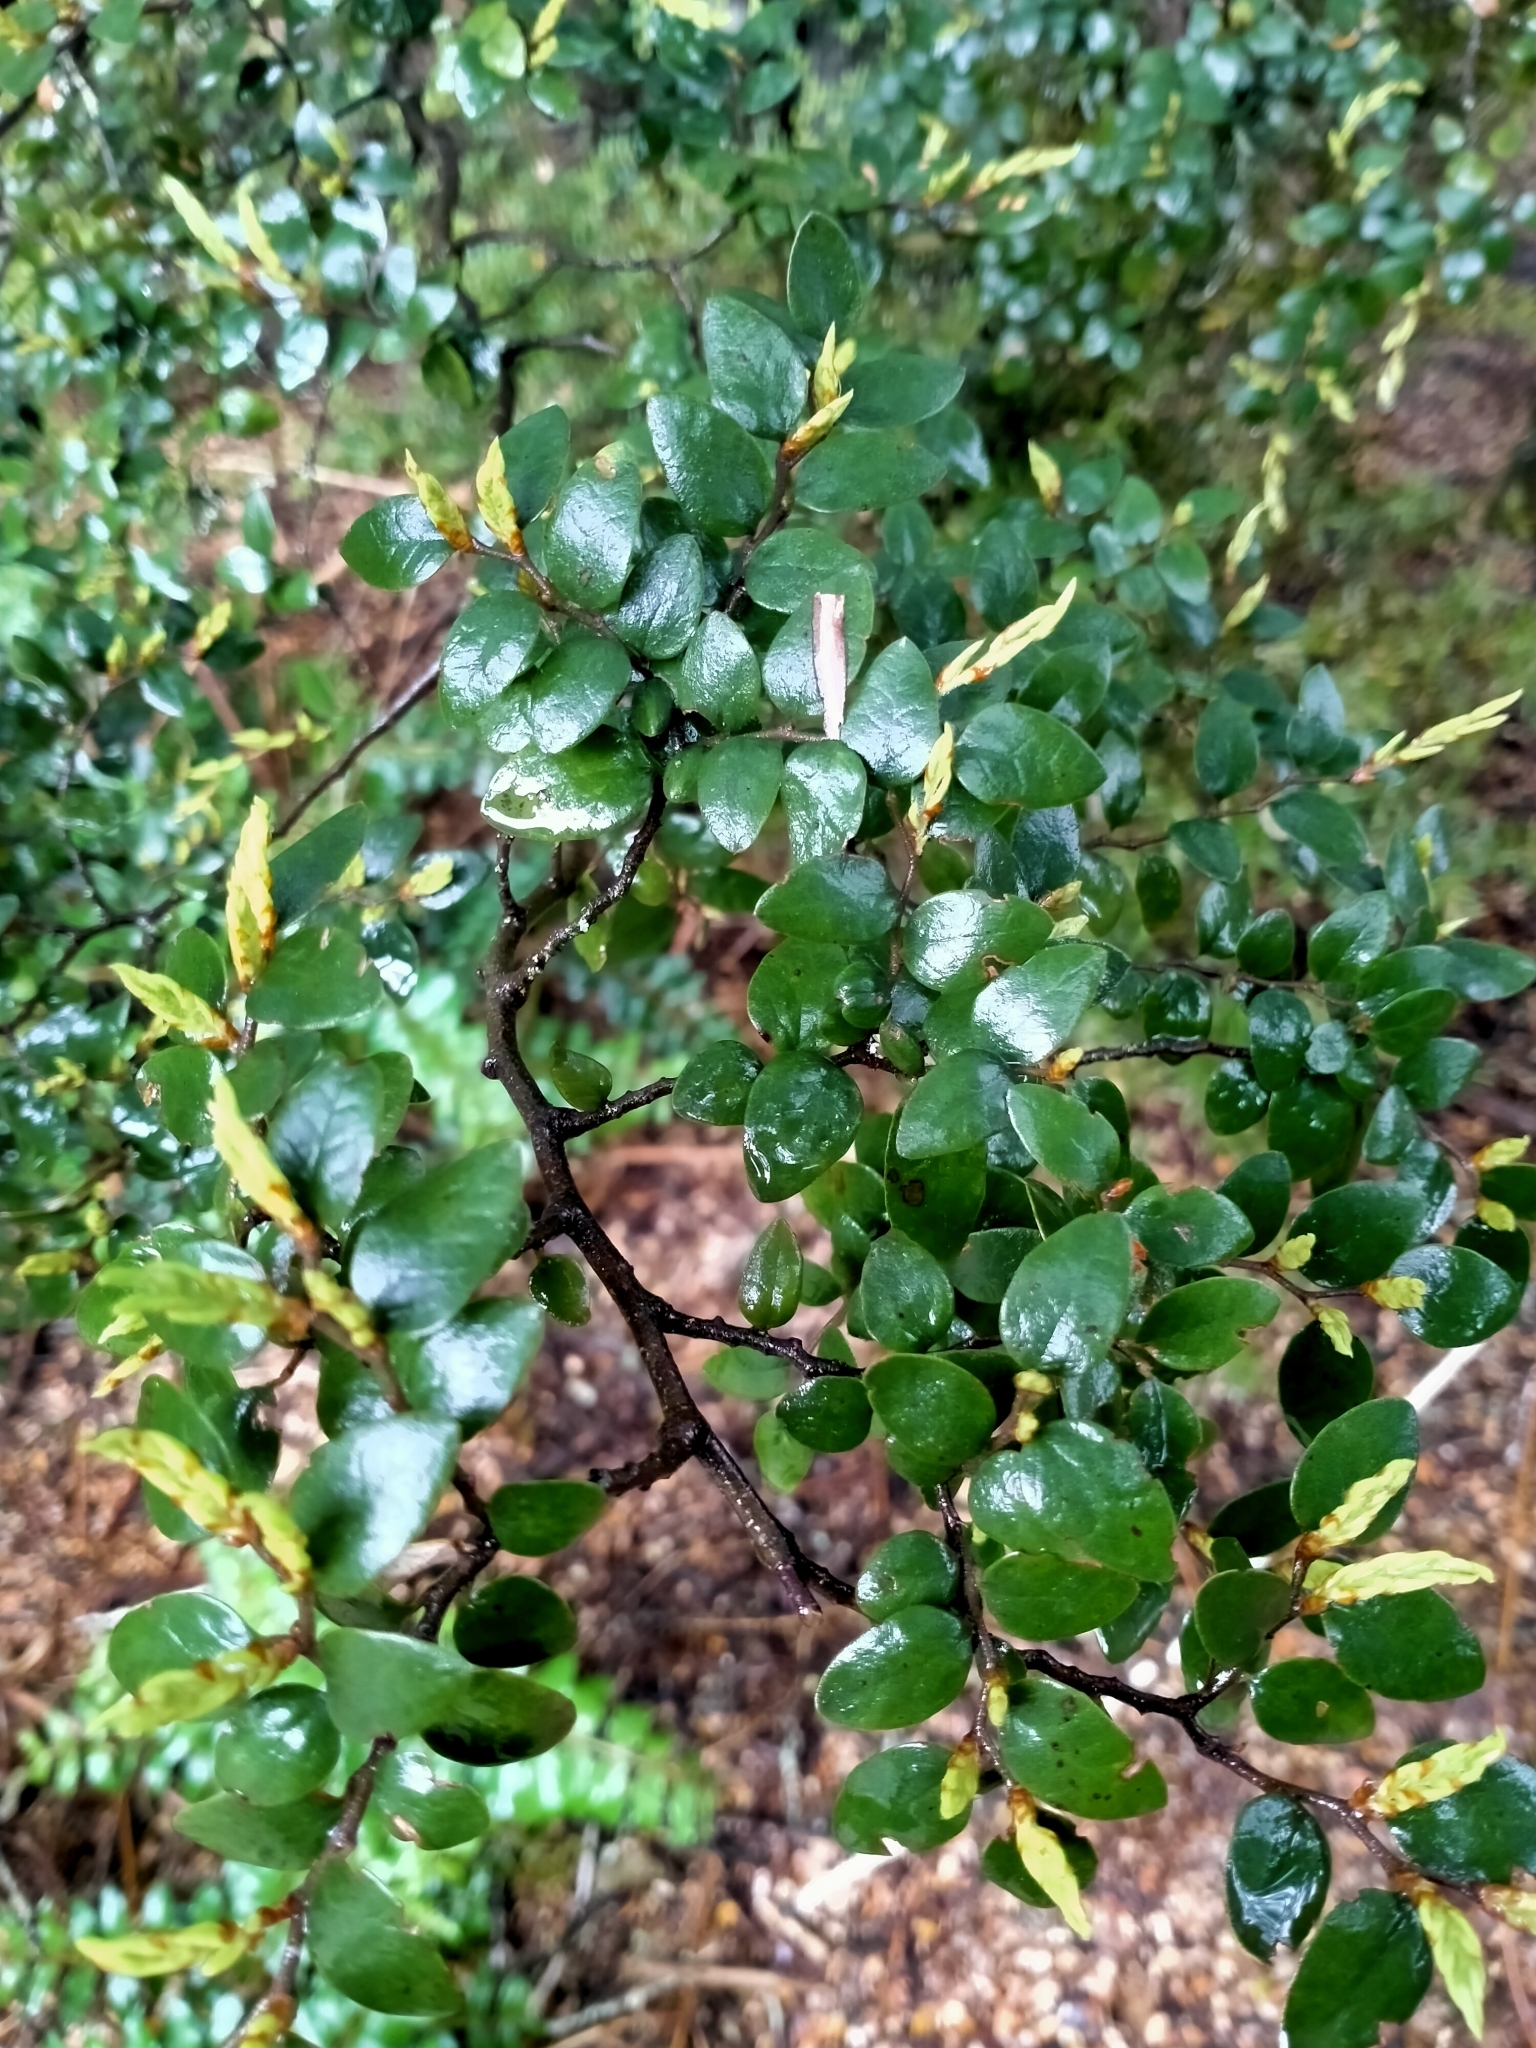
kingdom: Plantae
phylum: Tracheophyta
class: Magnoliopsida
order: Fagales
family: Nothofagaceae
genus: Nothofagus
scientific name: Nothofagus cliffortioides
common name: Mountain beech
